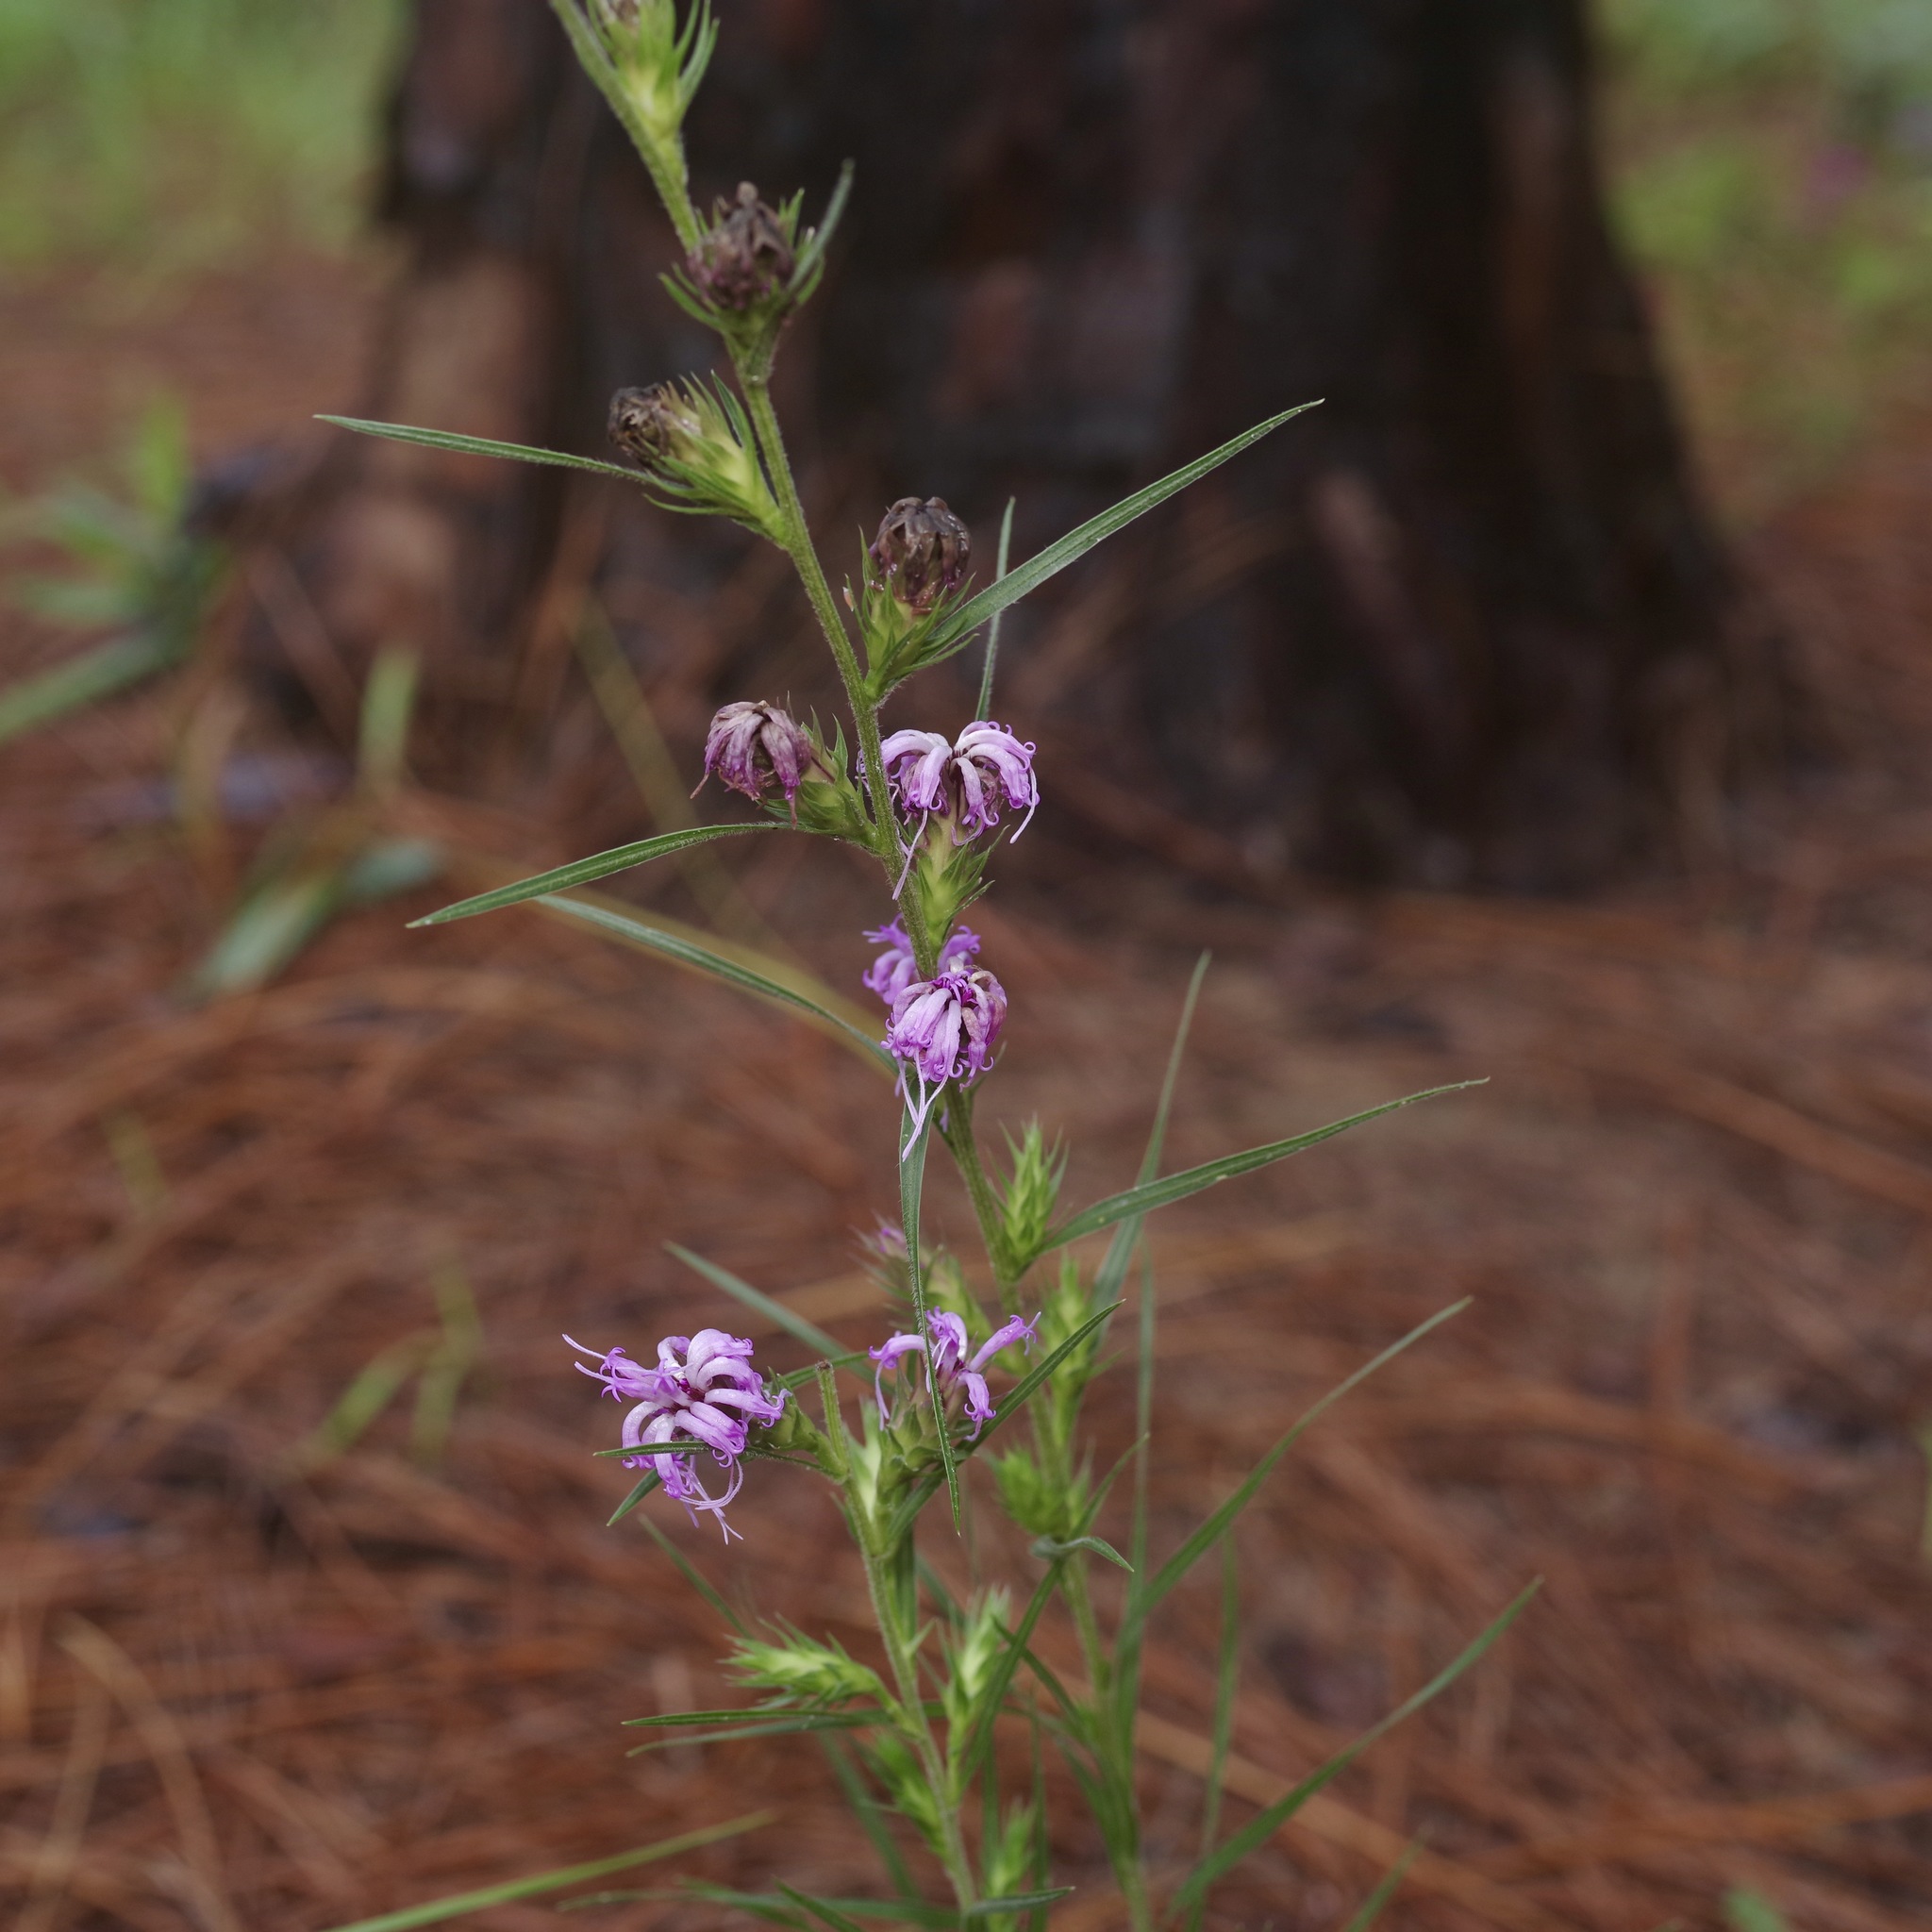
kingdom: Plantae
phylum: Tracheophyta
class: Magnoliopsida
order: Asterales
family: Asteraceae
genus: Liatris
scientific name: Liatris squarrosa
